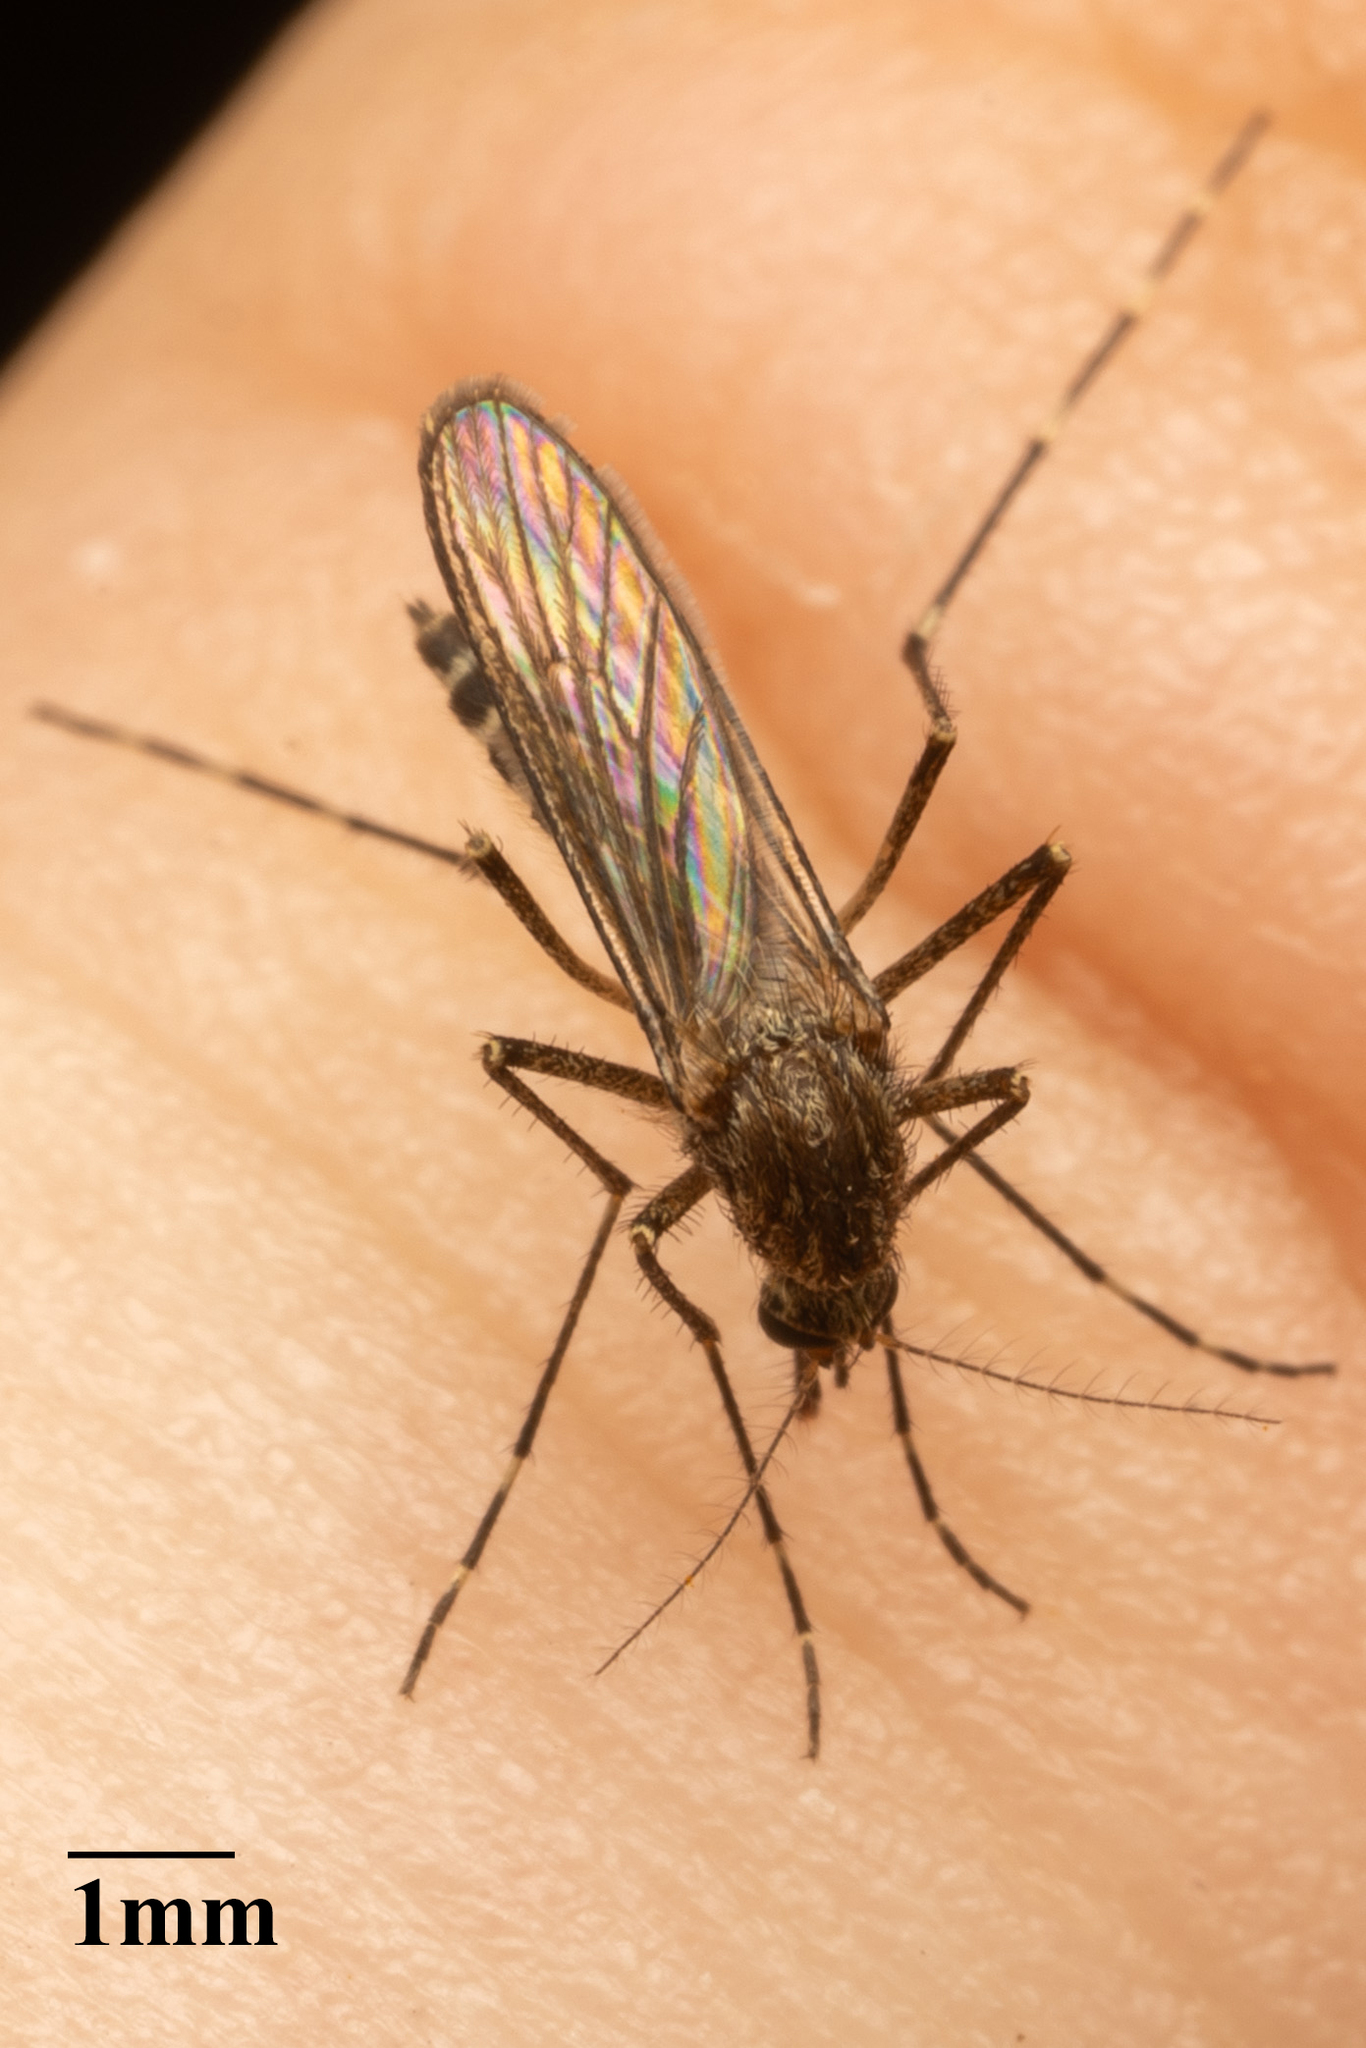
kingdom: Animalia
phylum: Arthropoda
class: Insecta
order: Diptera
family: Culicidae
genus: Aedes
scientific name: Aedes increpitus
